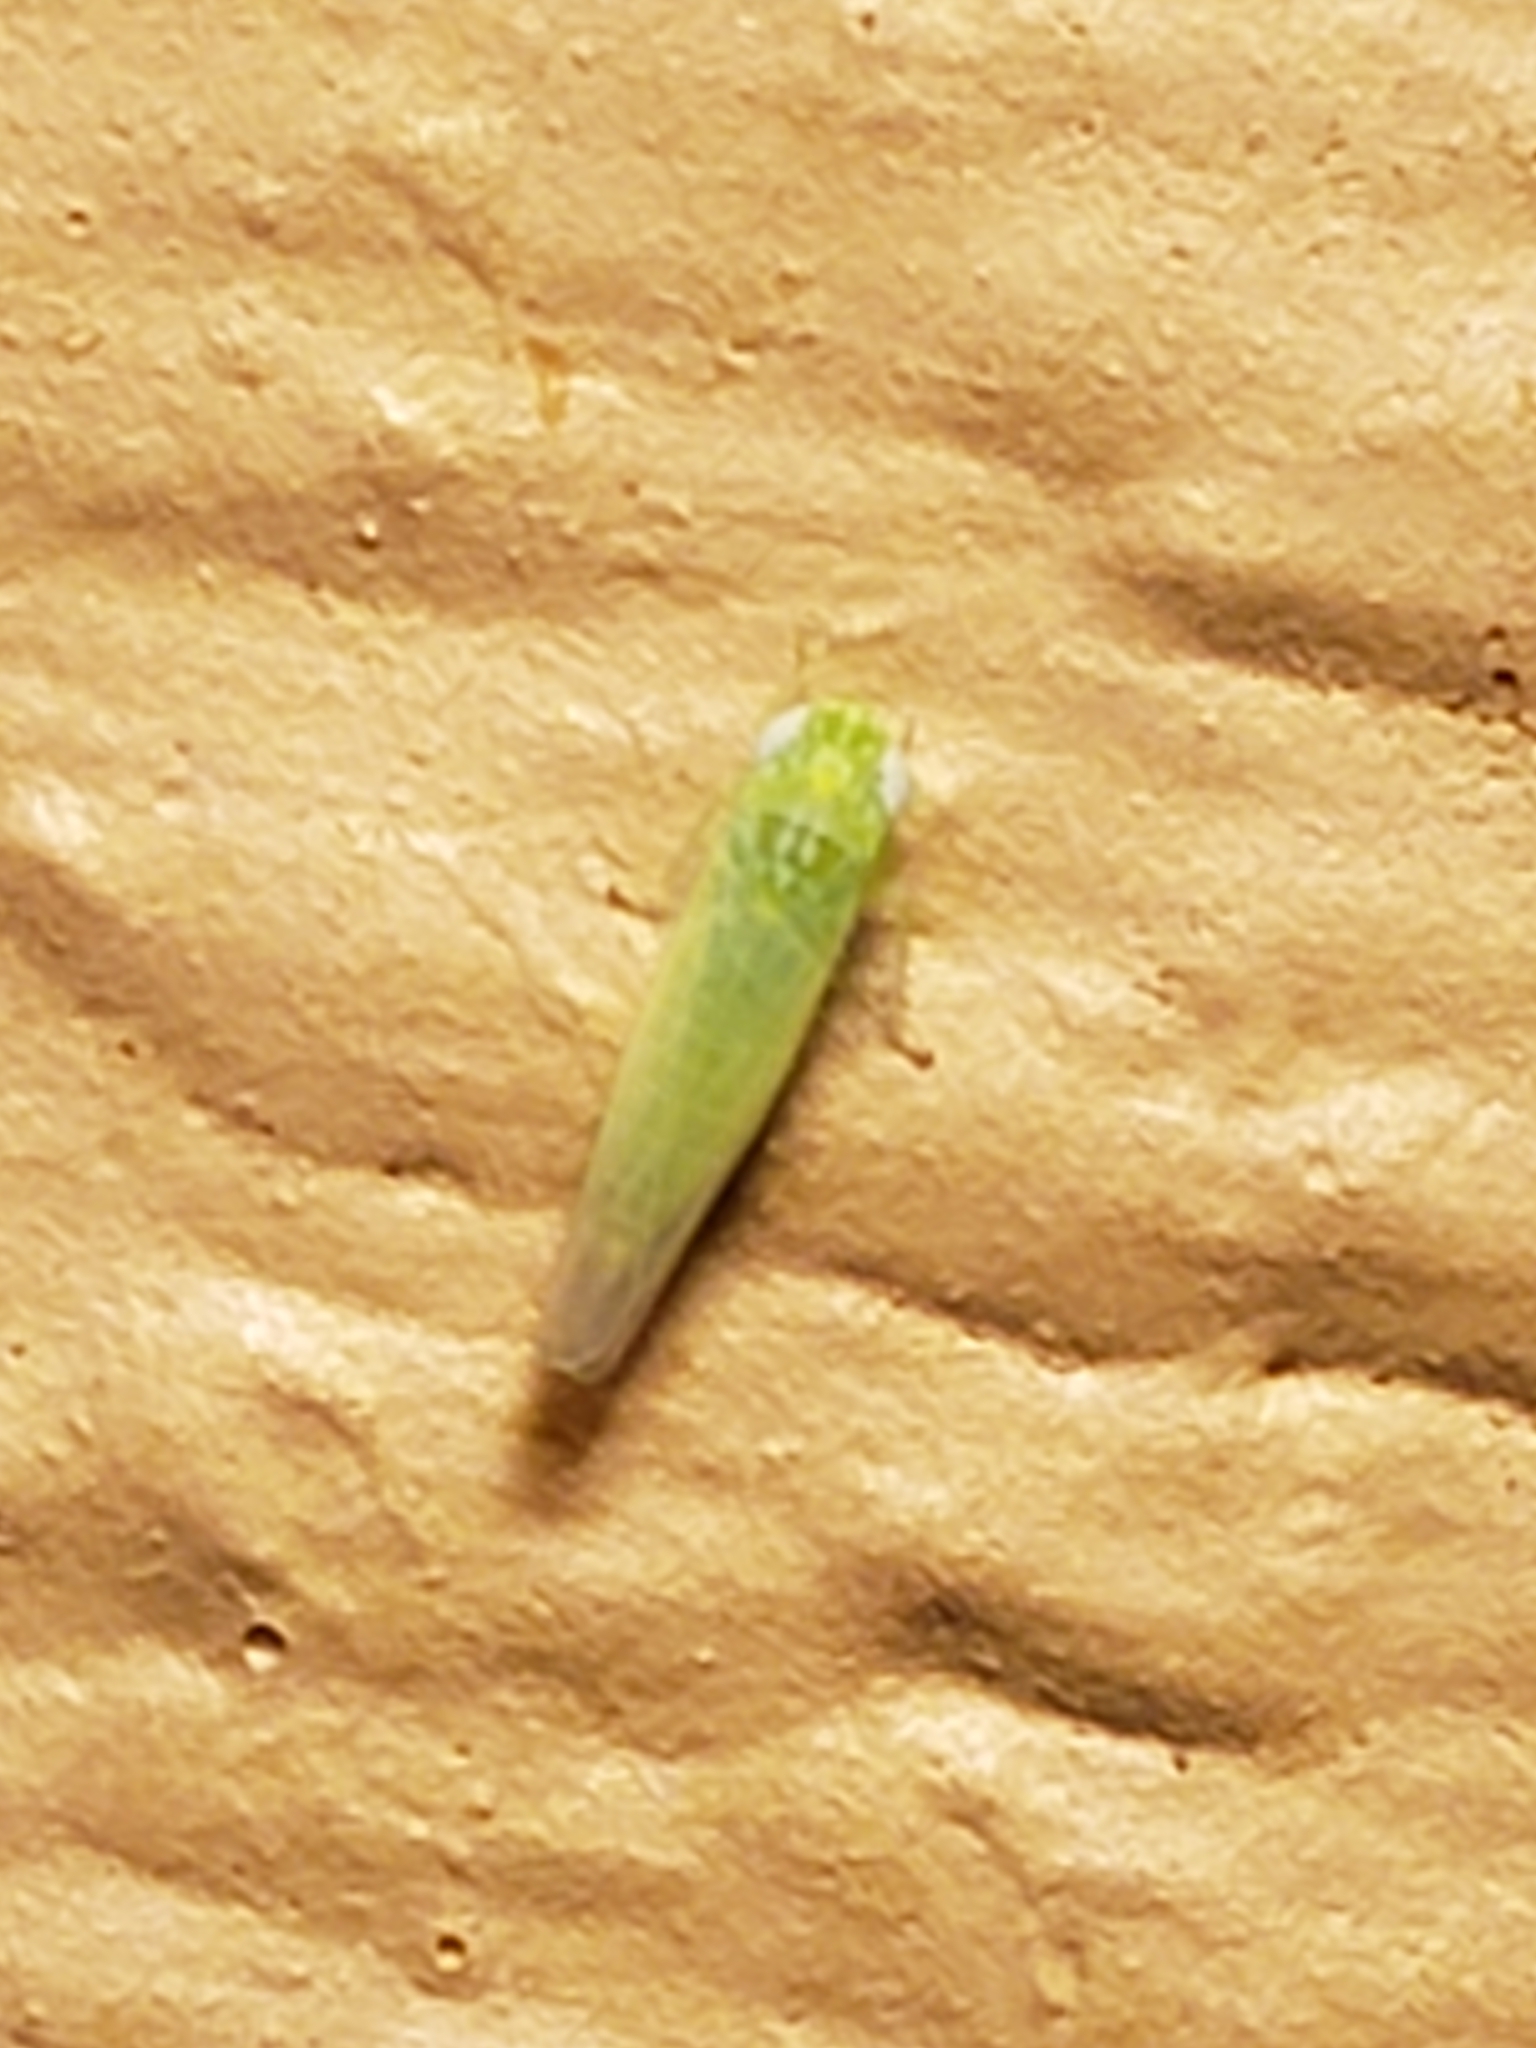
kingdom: Animalia
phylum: Arthropoda
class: Insecta
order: Hemiptera
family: Cicadellidae
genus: Empoasca
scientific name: Empoasca fabae
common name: Potato leafhopper
